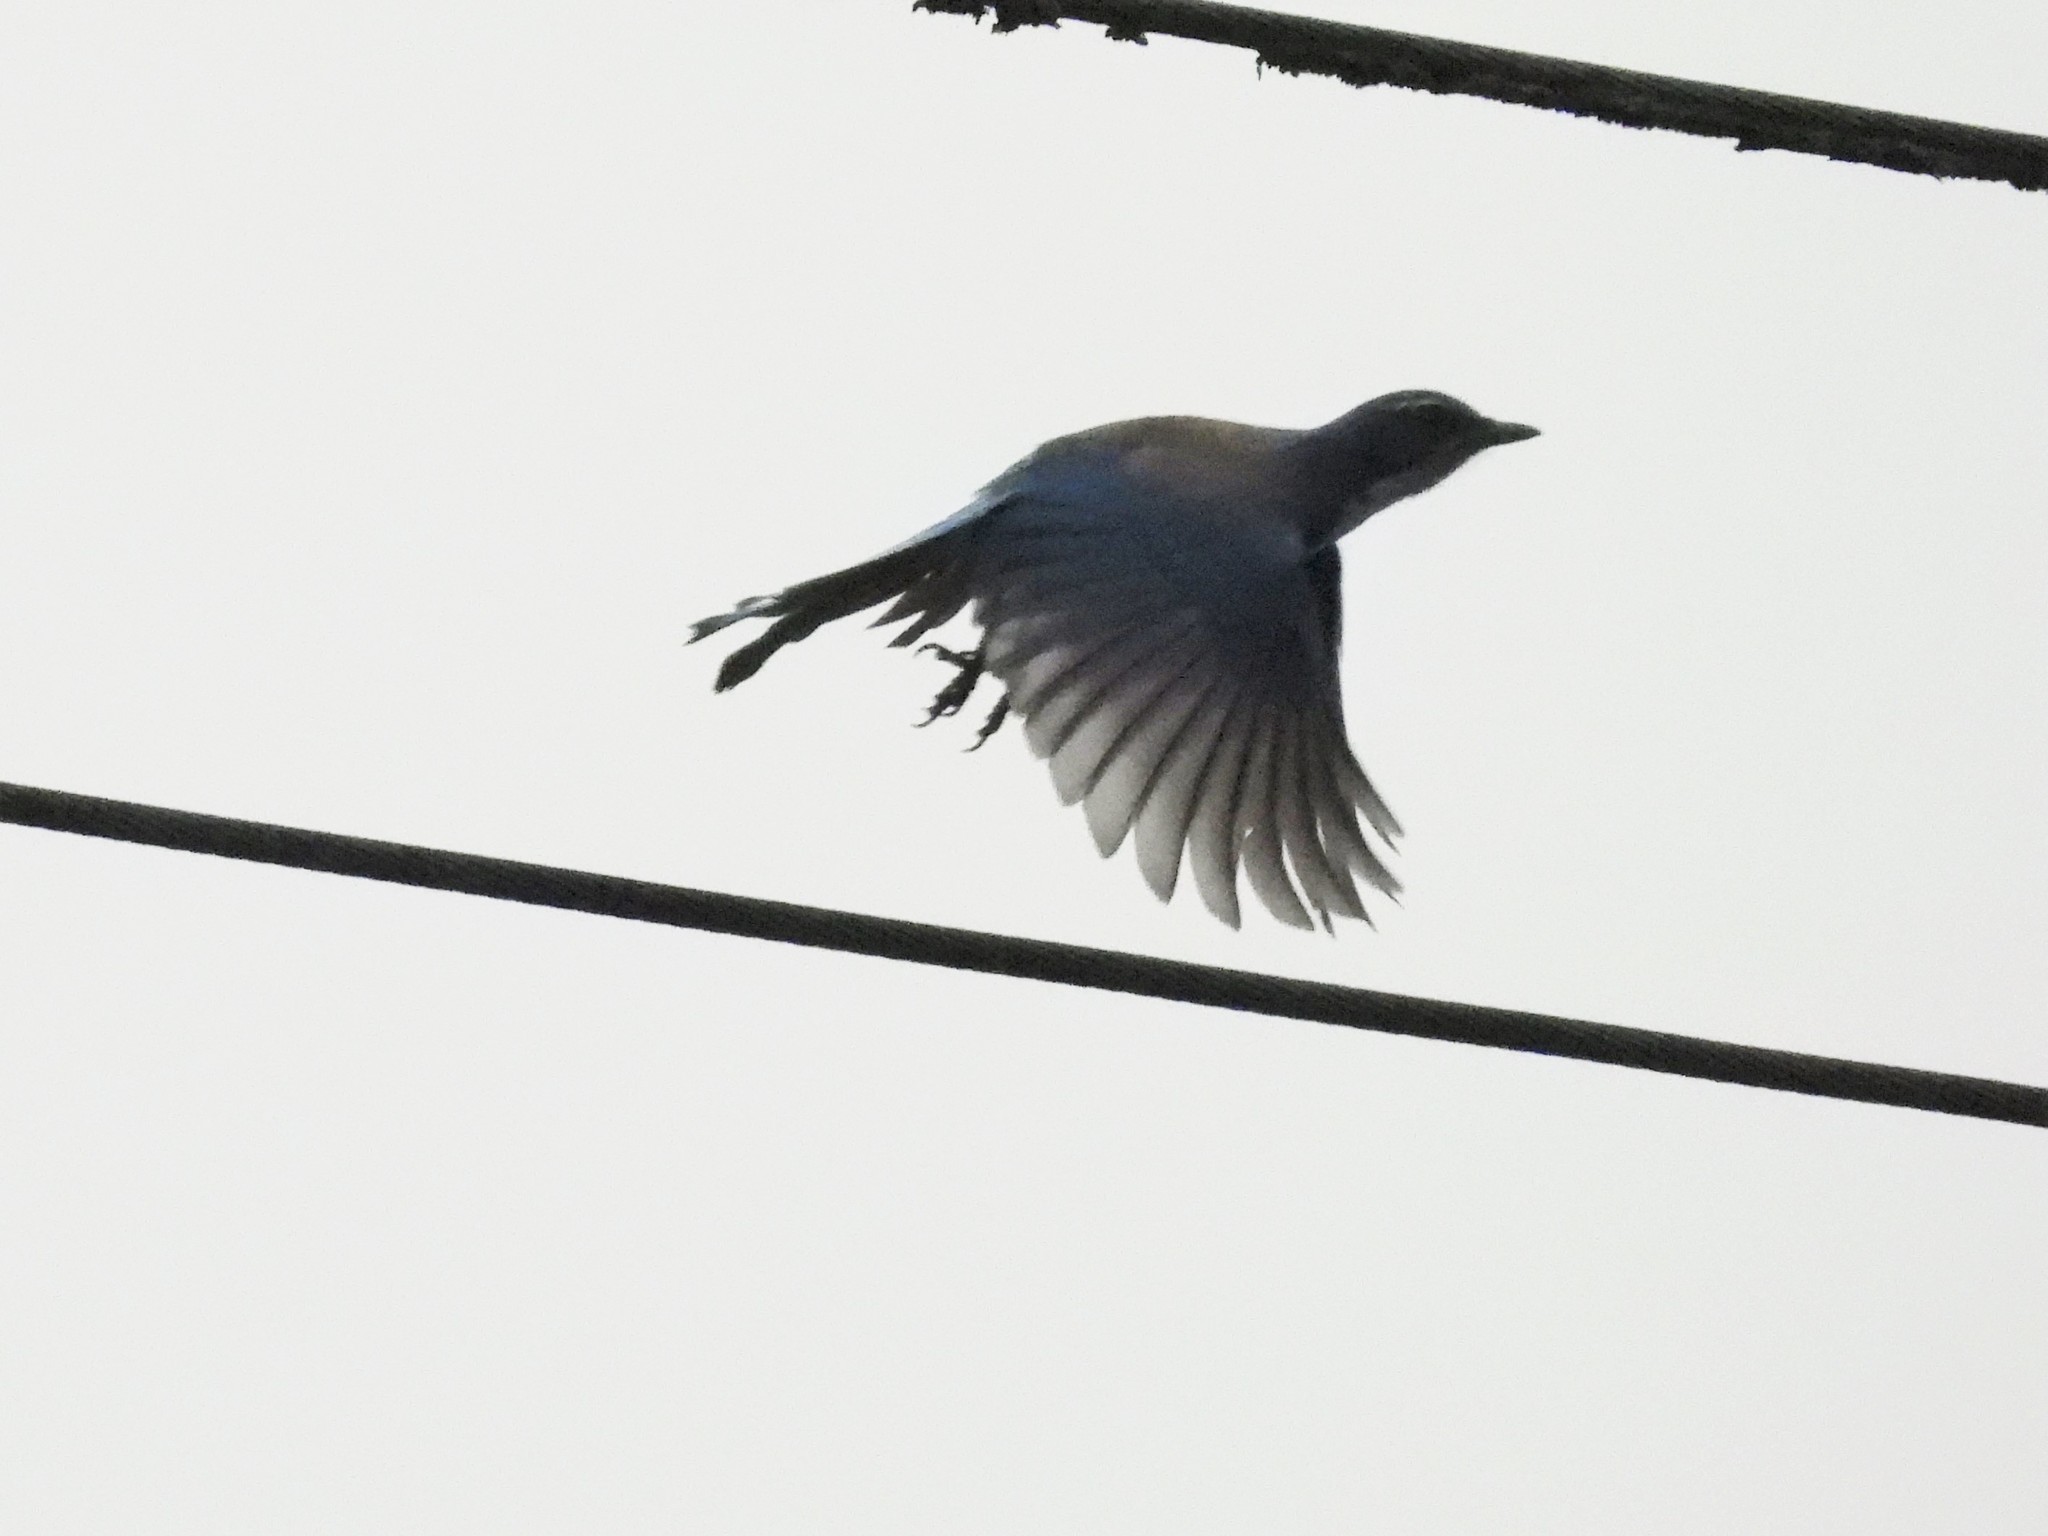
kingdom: Animalia
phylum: Chordata
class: Aves
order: Passeriformes
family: Corvidae
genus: Aphelocoma
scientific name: Aphelocoma californica
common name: California scrub-jay
